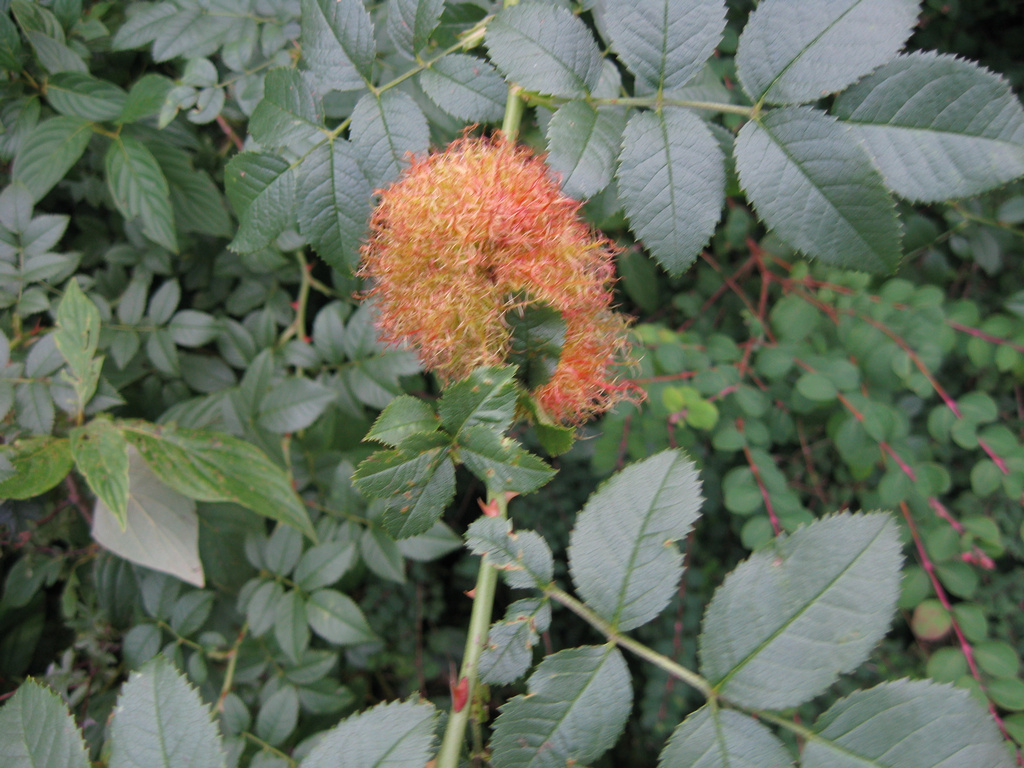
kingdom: Animalia
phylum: Arthropoda
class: Insecta
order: Hymenoptera
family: Cynipidae
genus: Diplolepis
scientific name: Diplolepis rosae
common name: Bedeguar gall
